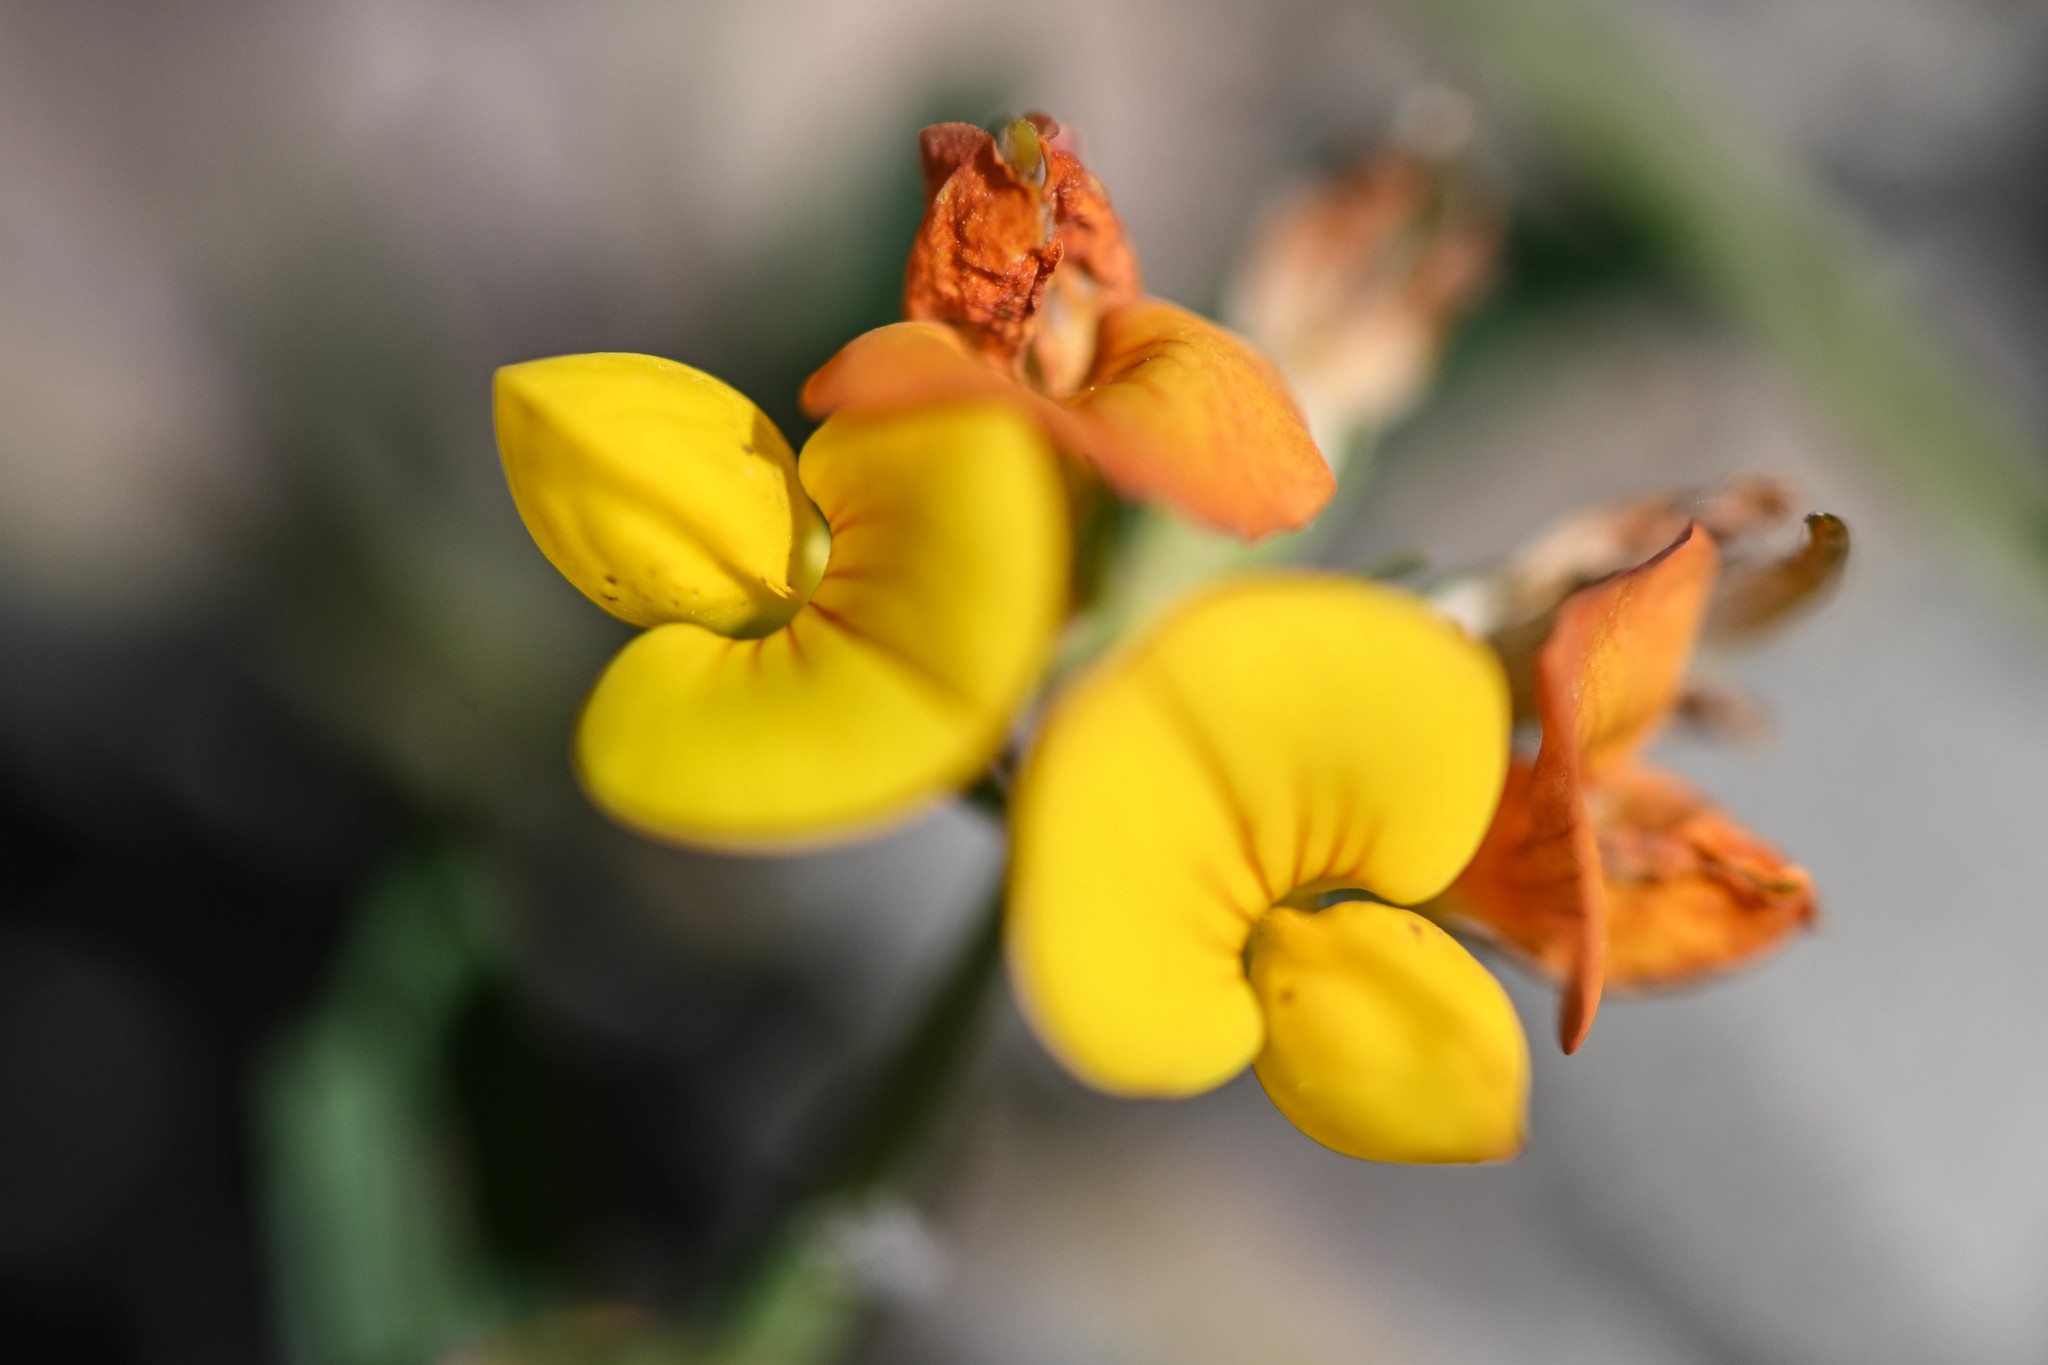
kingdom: Plantae
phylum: Tracheophyta
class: Magnoliopsida
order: Fabales
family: Fabaceae
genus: Lotus
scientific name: Lotus corniculatus
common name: Common bird's-foot-trefoil
